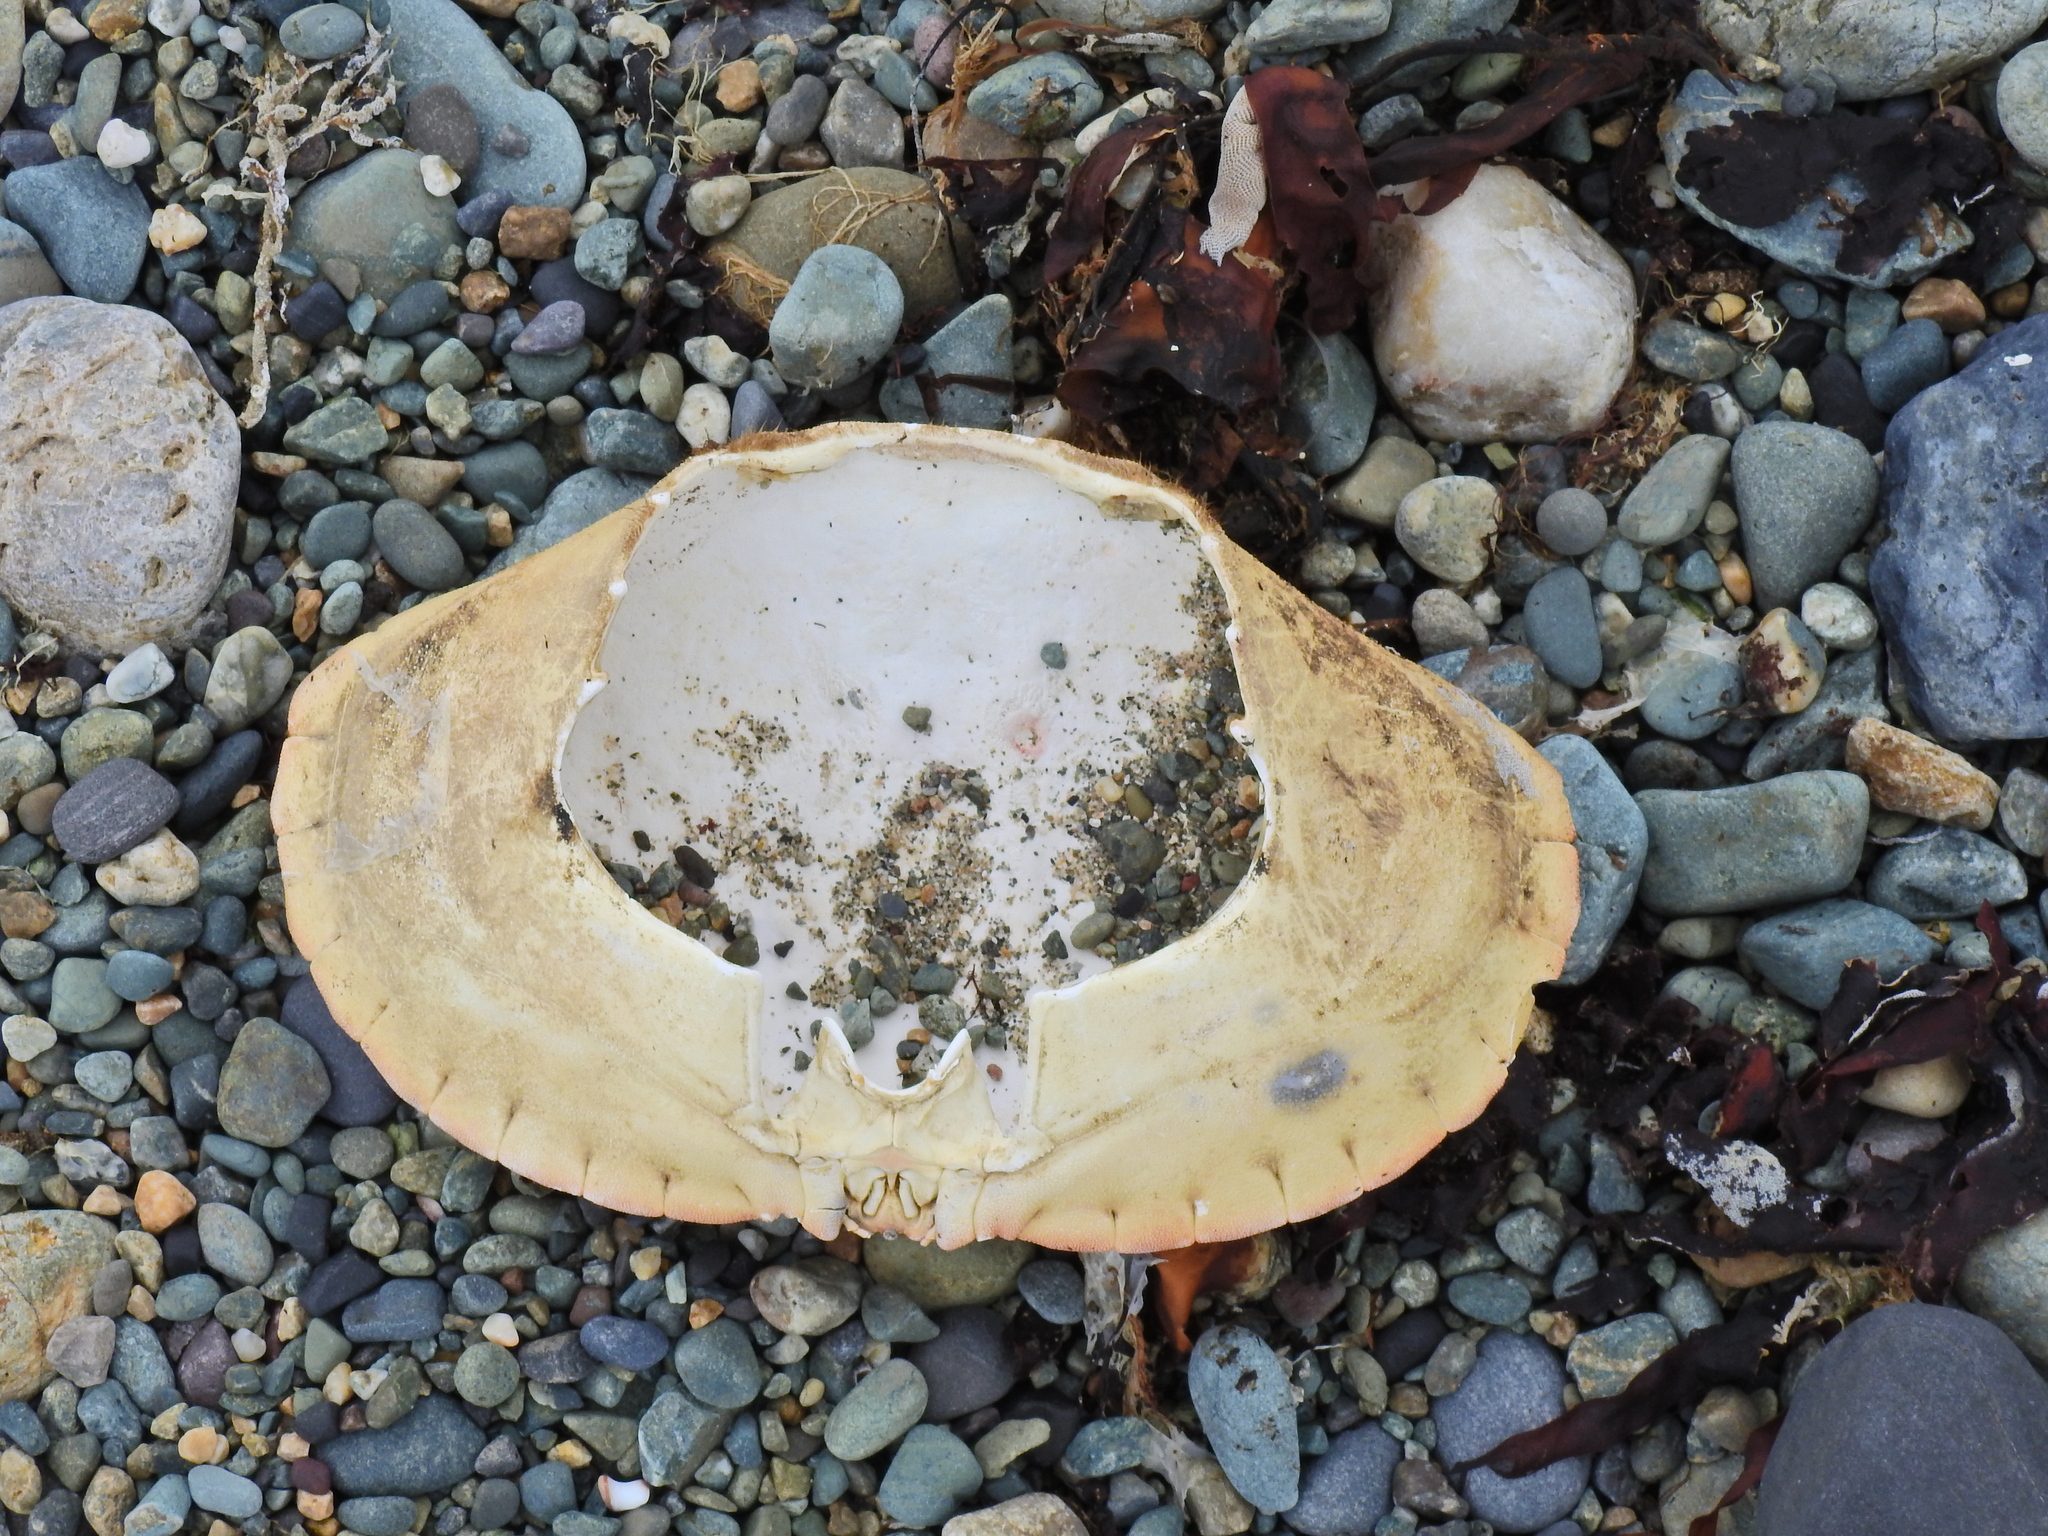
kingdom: Animalia
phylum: Arthropoda
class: Malacostraca
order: Decapoda
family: Cancridae
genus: Cancer
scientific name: Cancer pagurus
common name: Edible crab
